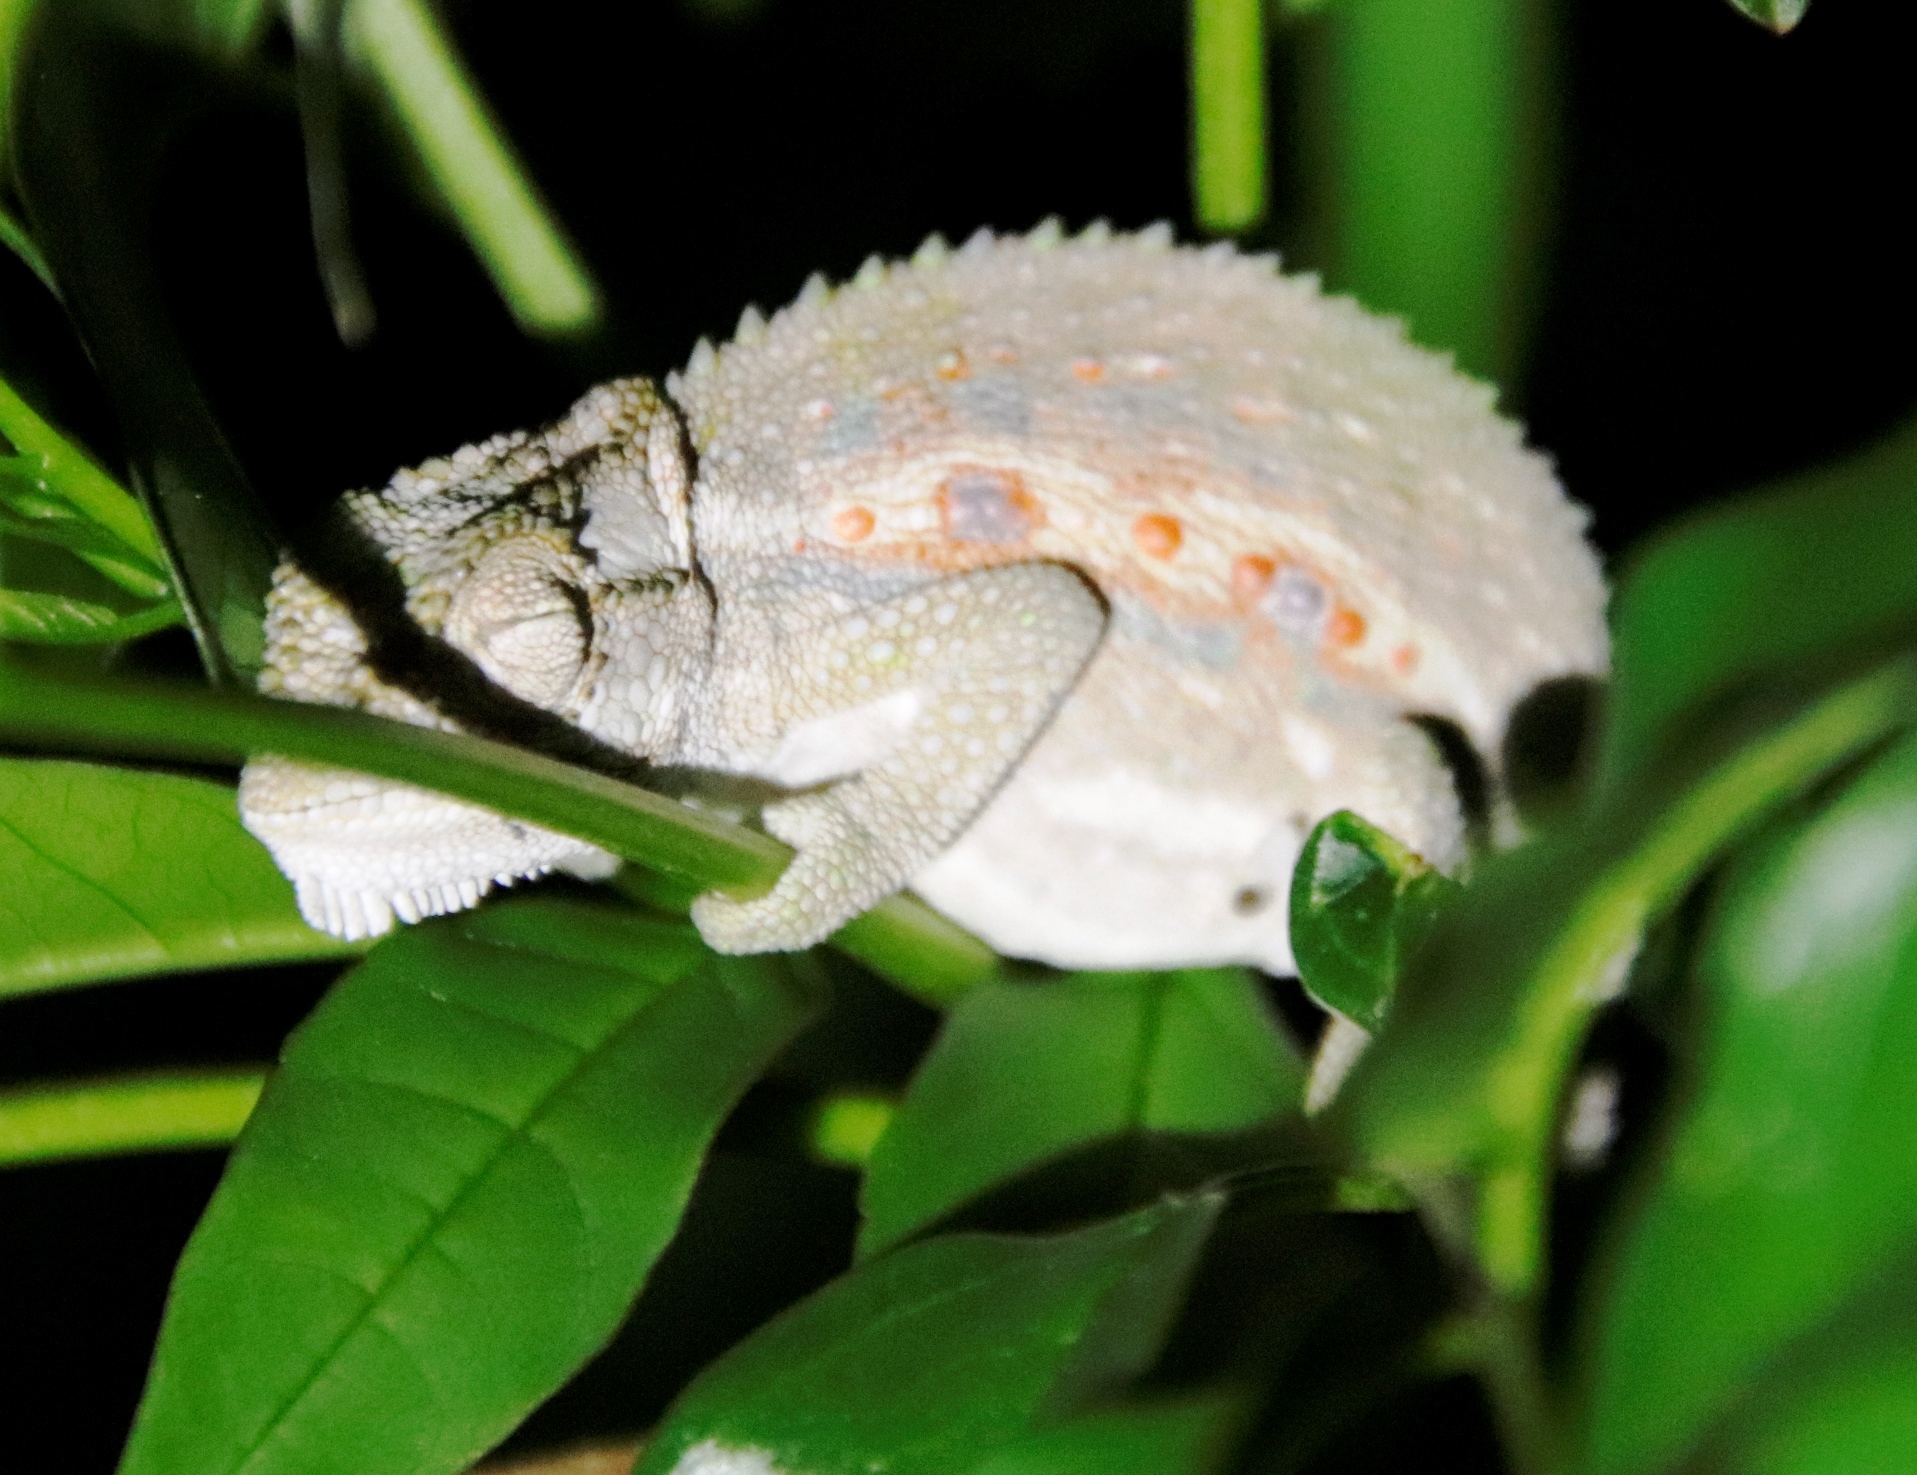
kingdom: Animalia
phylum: Chordata
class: Squamata
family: Chamaeleonidae
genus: Bradypodion
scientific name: Bradypodion pumilum
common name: Cape dwarf chameleon
